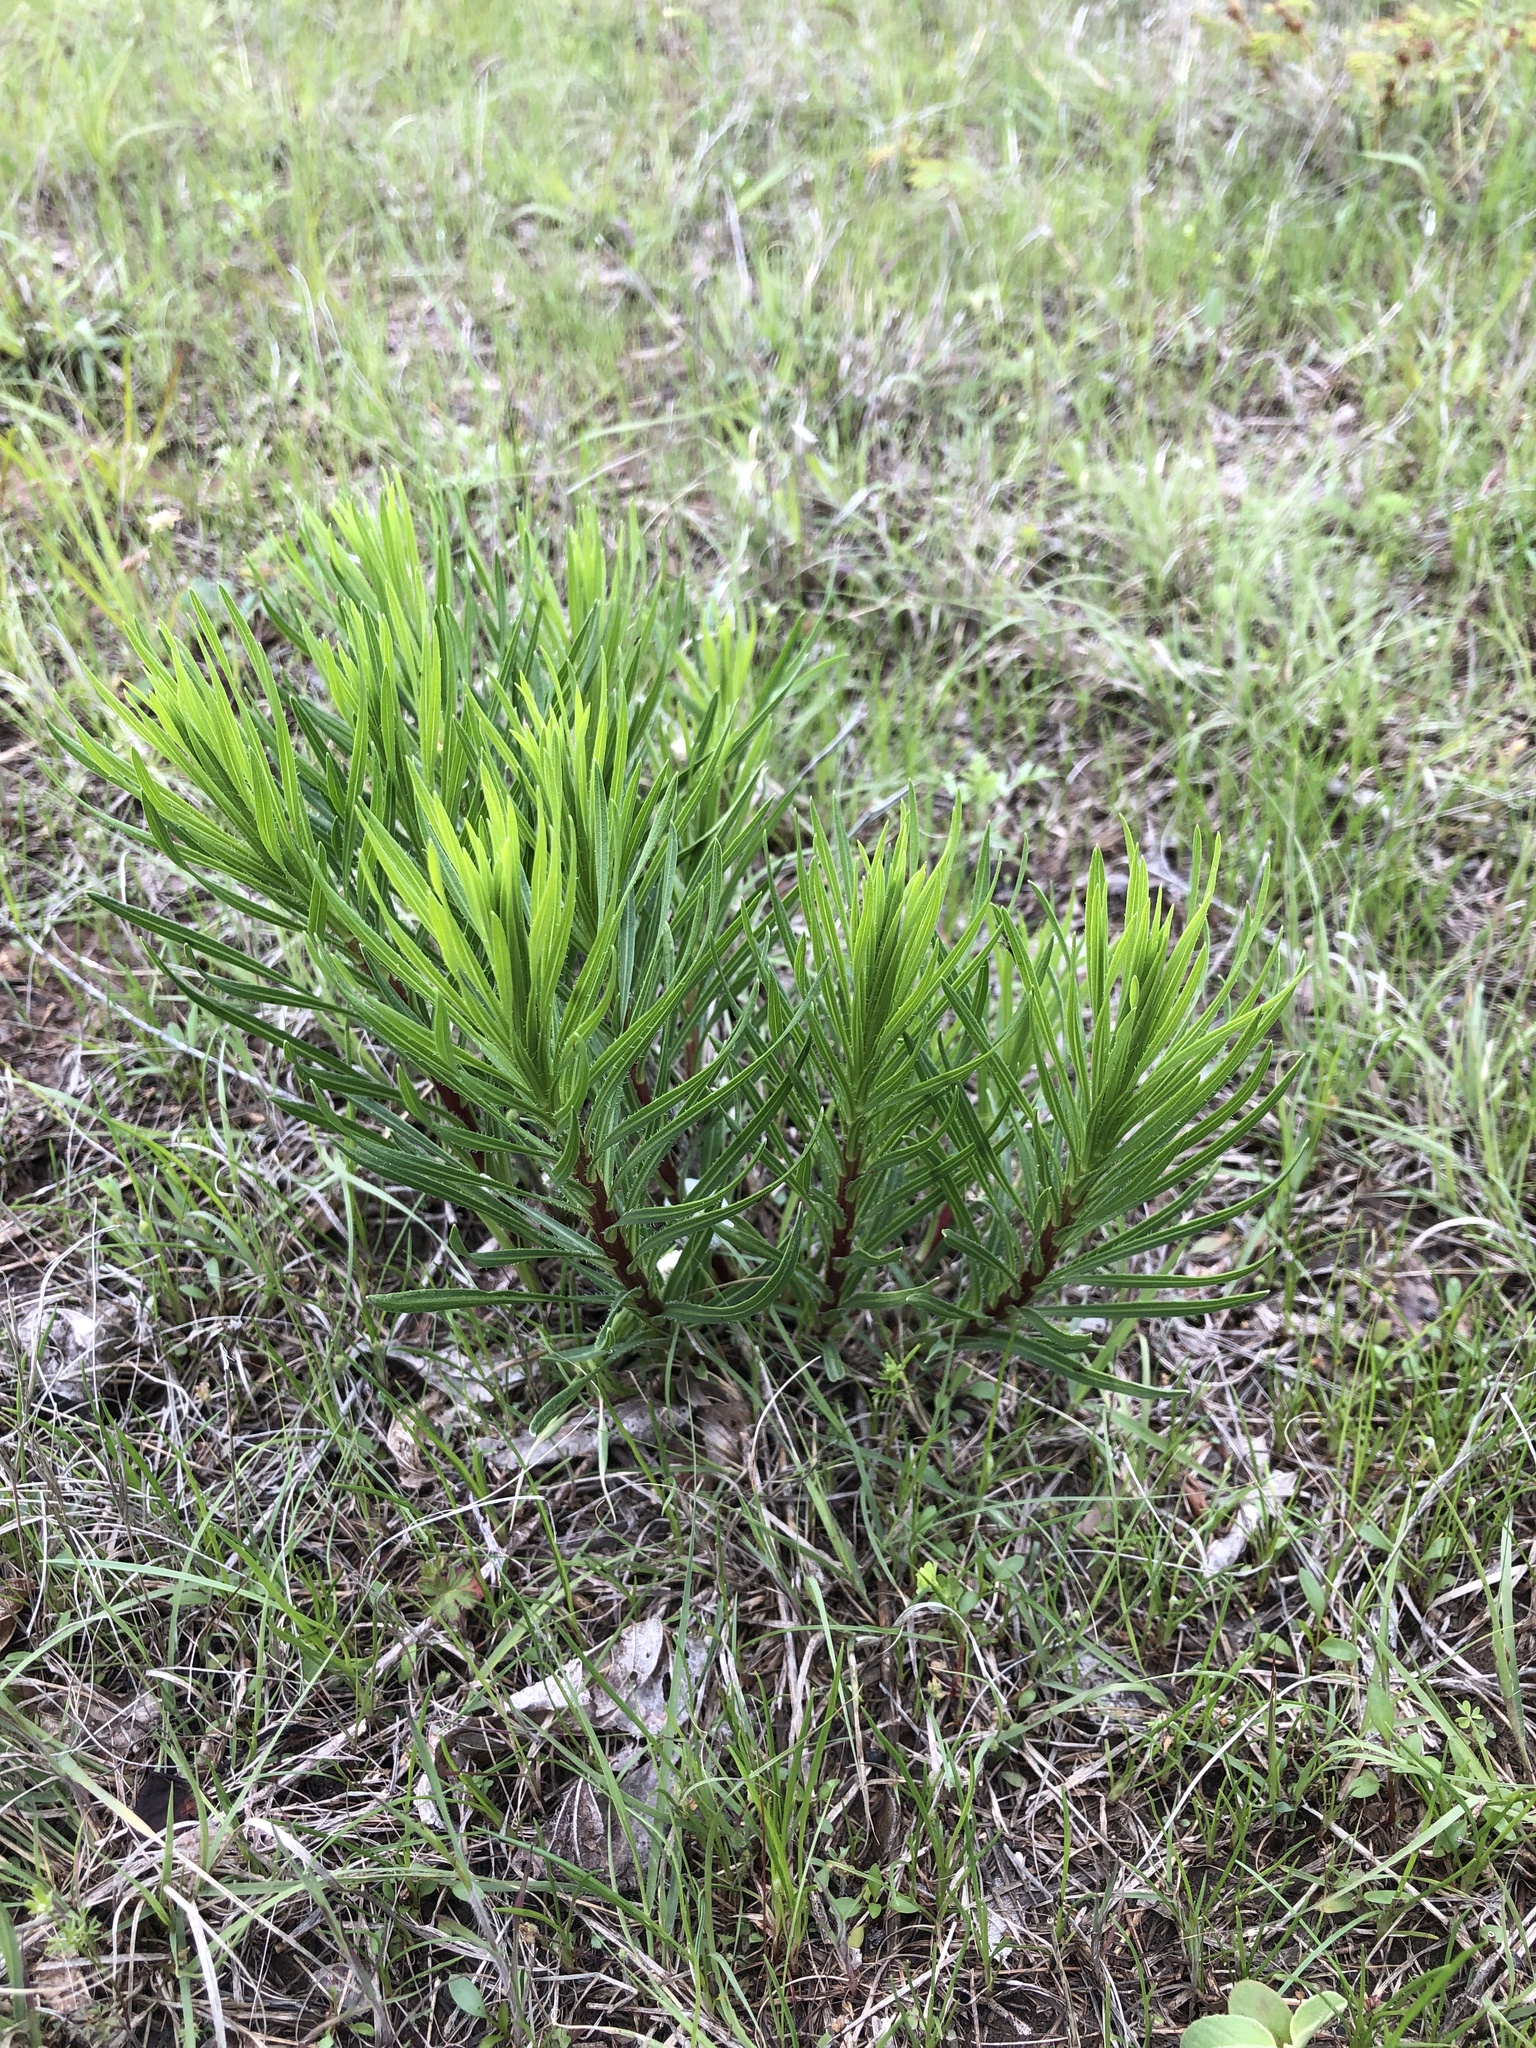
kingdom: Plantae
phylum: Tracheophyta
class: Magnoliopsida
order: Asterales
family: Asteraceae
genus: Liatris
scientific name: Liatris punctata
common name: Dotted gayfeather
